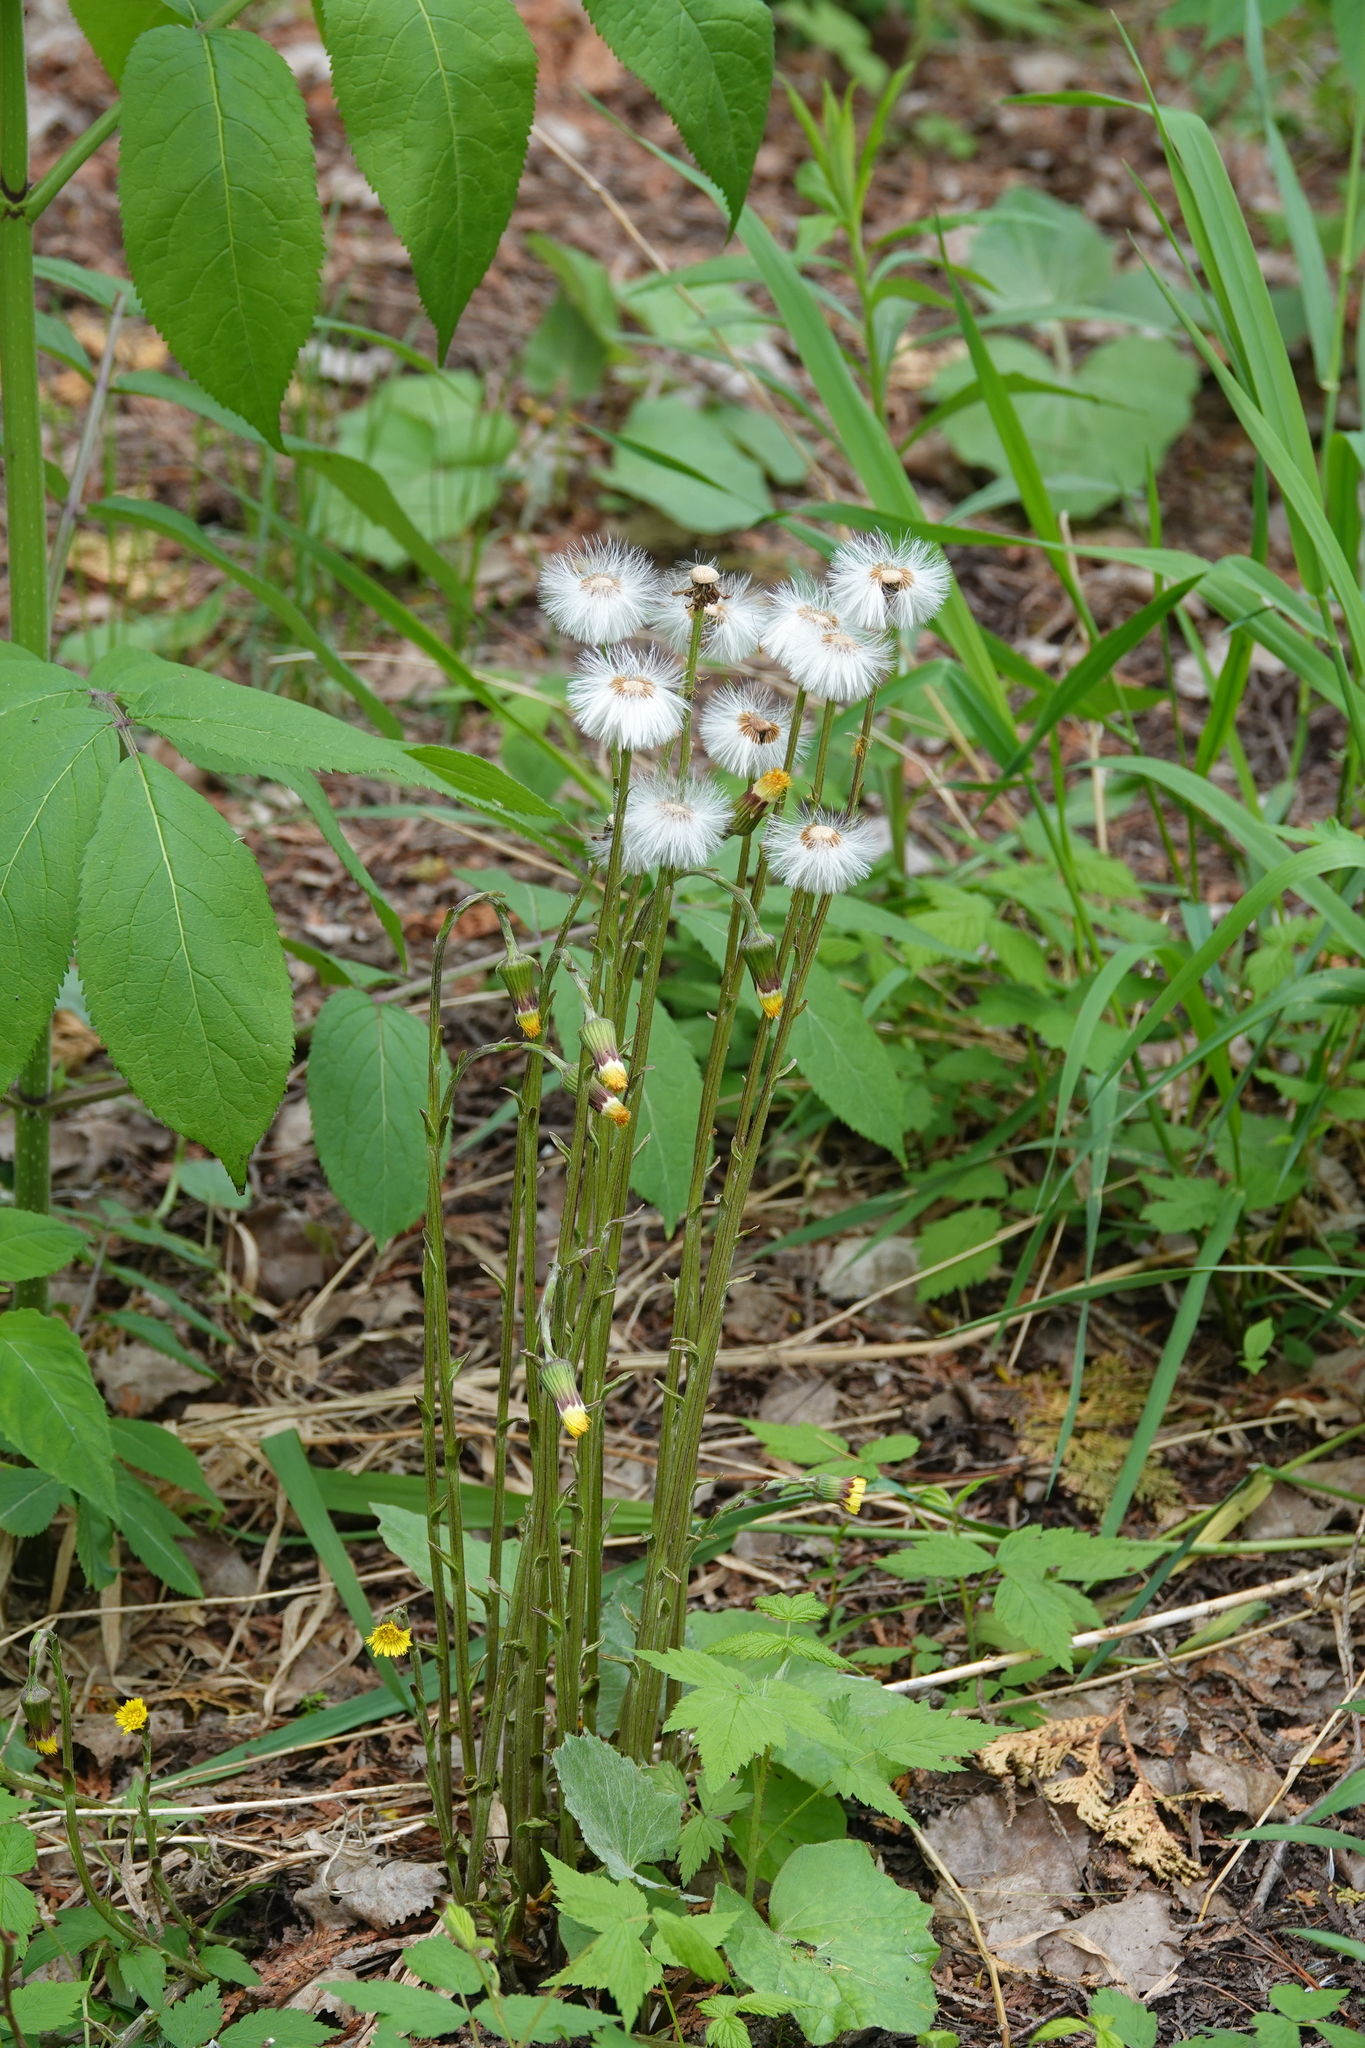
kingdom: Plantae
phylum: Tracheophyta
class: Magnoliopsida
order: Asterales
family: Asteraceae
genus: Tussilago
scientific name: Tussilago farfara
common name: Coltsfoot
